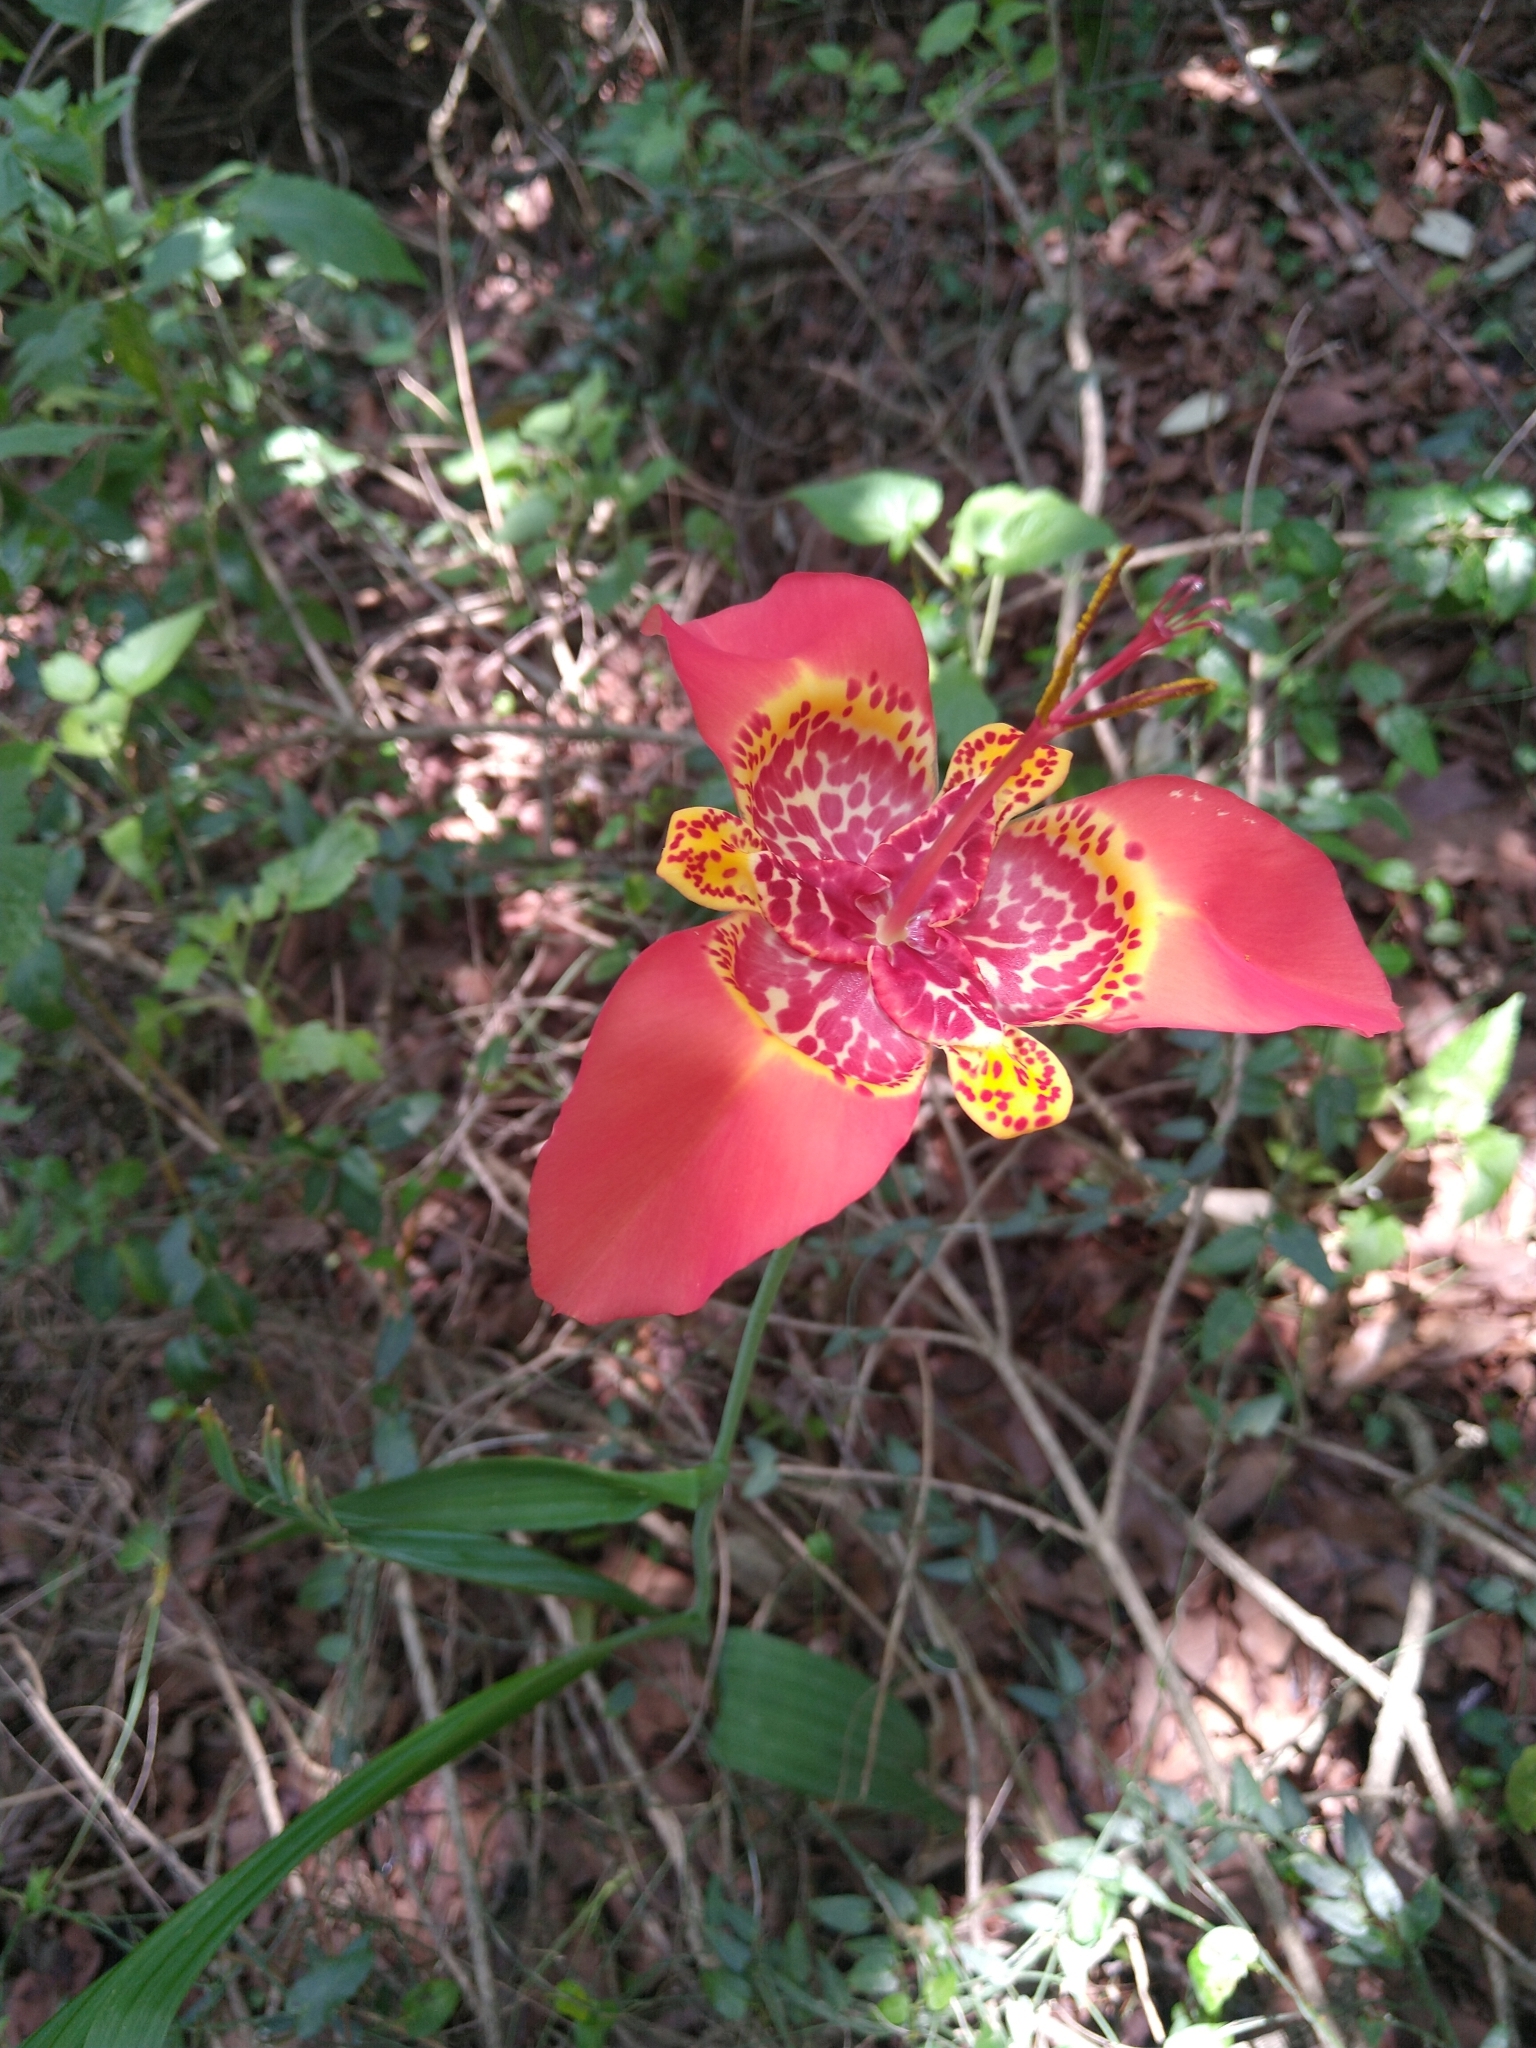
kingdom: Plantae
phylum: Tracheophyta
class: Liliopsida
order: Asparagales
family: Iridaceae
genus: Tigridia
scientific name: Tigridia pavonia
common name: Peacock-flower
